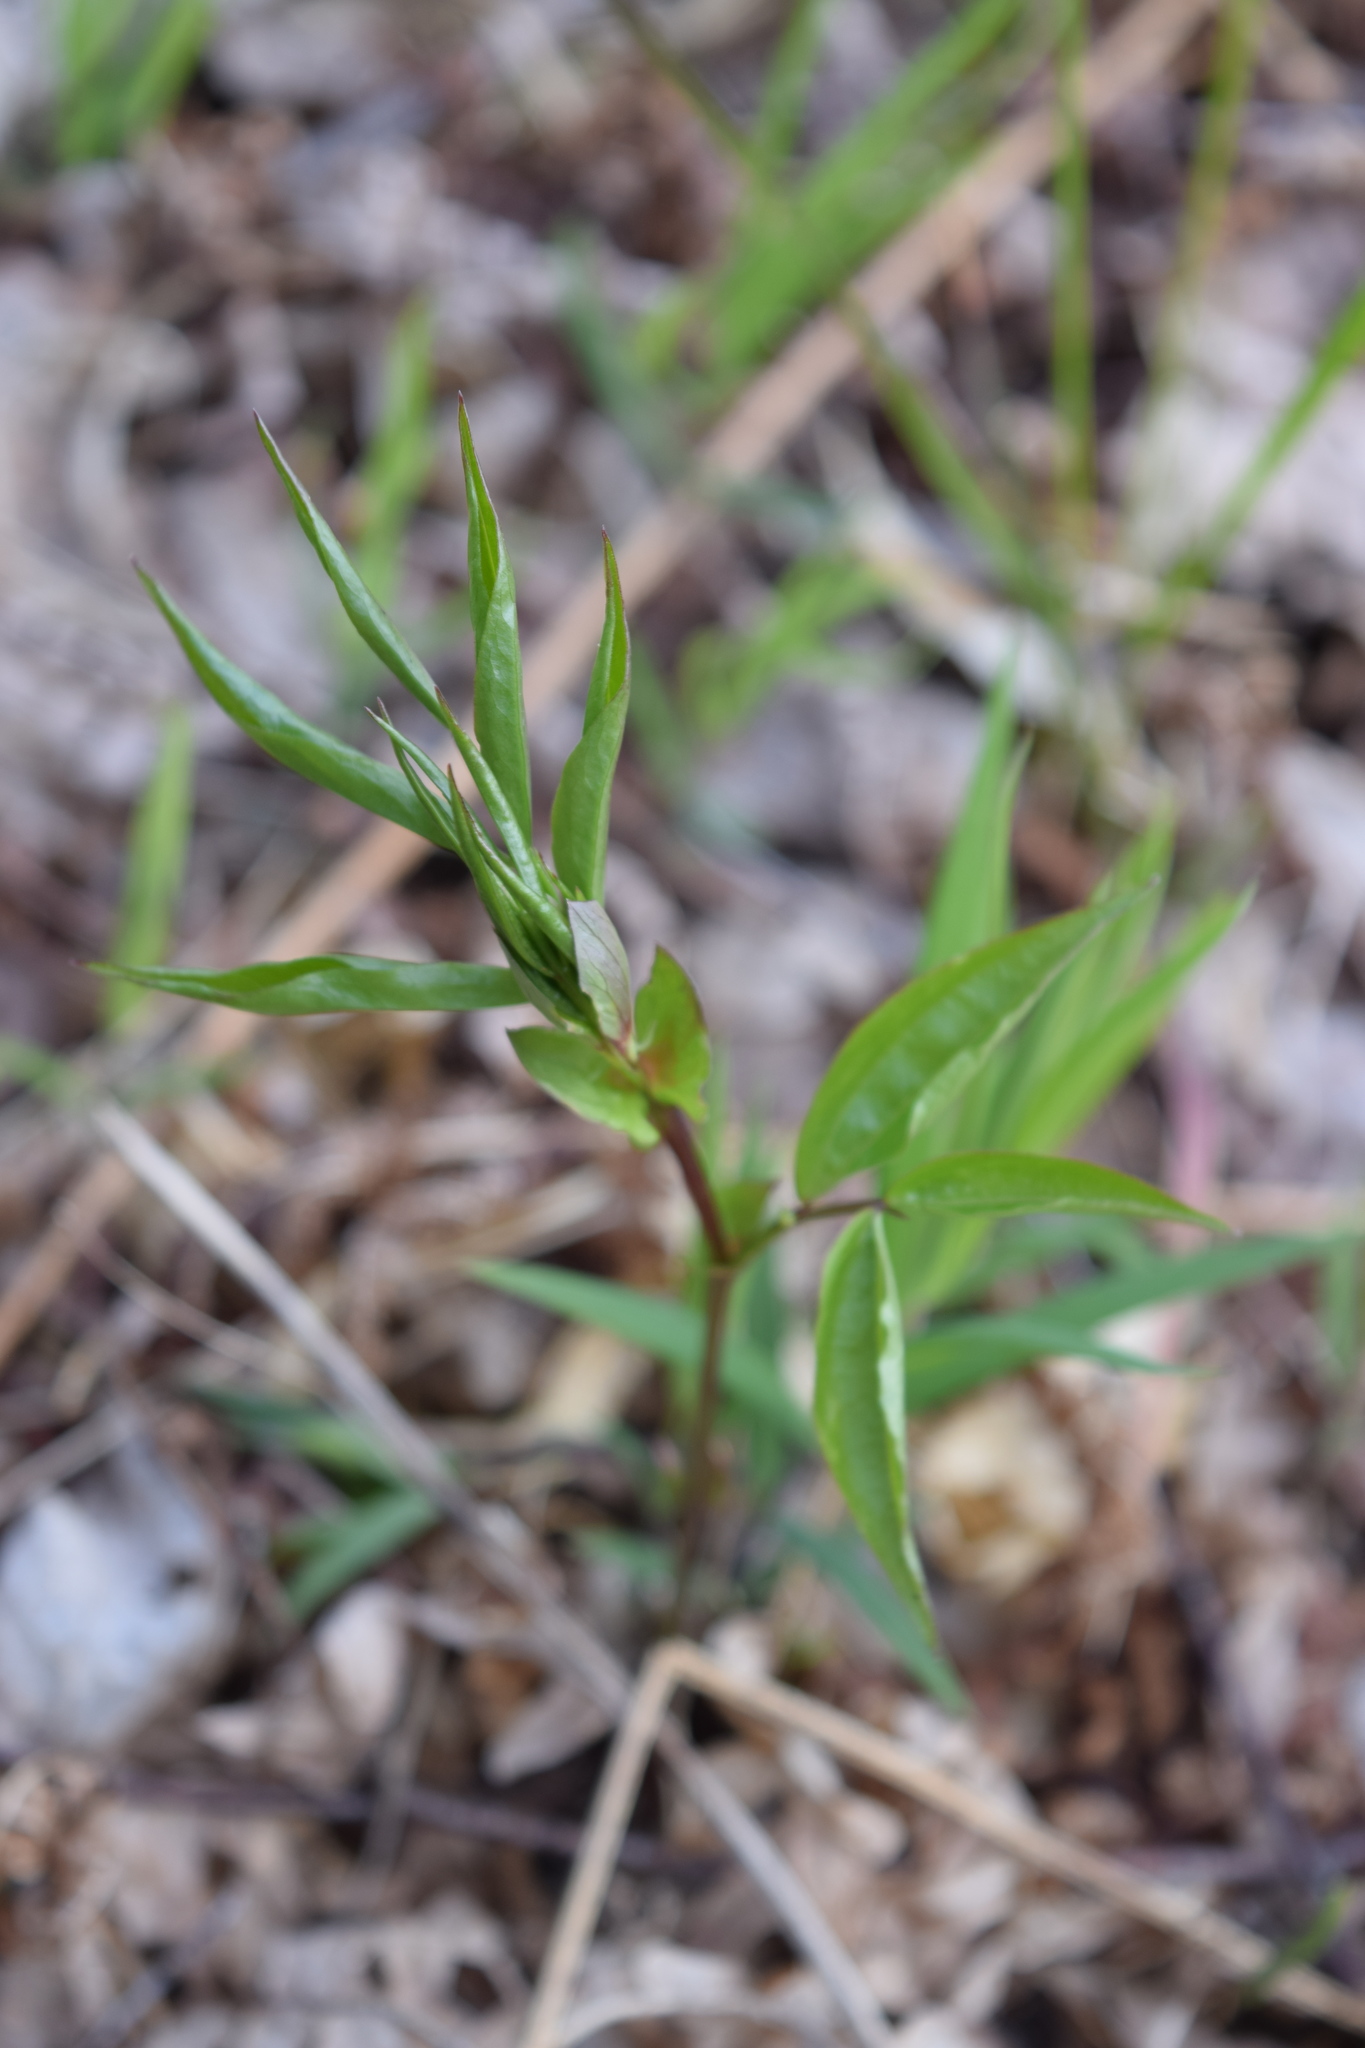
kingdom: Plantae
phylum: Tracheophyta
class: Magnoliopsida
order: Fabales
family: Fabaceae
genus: Lathyrus
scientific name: Lathyrus vernus
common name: Spring pea
